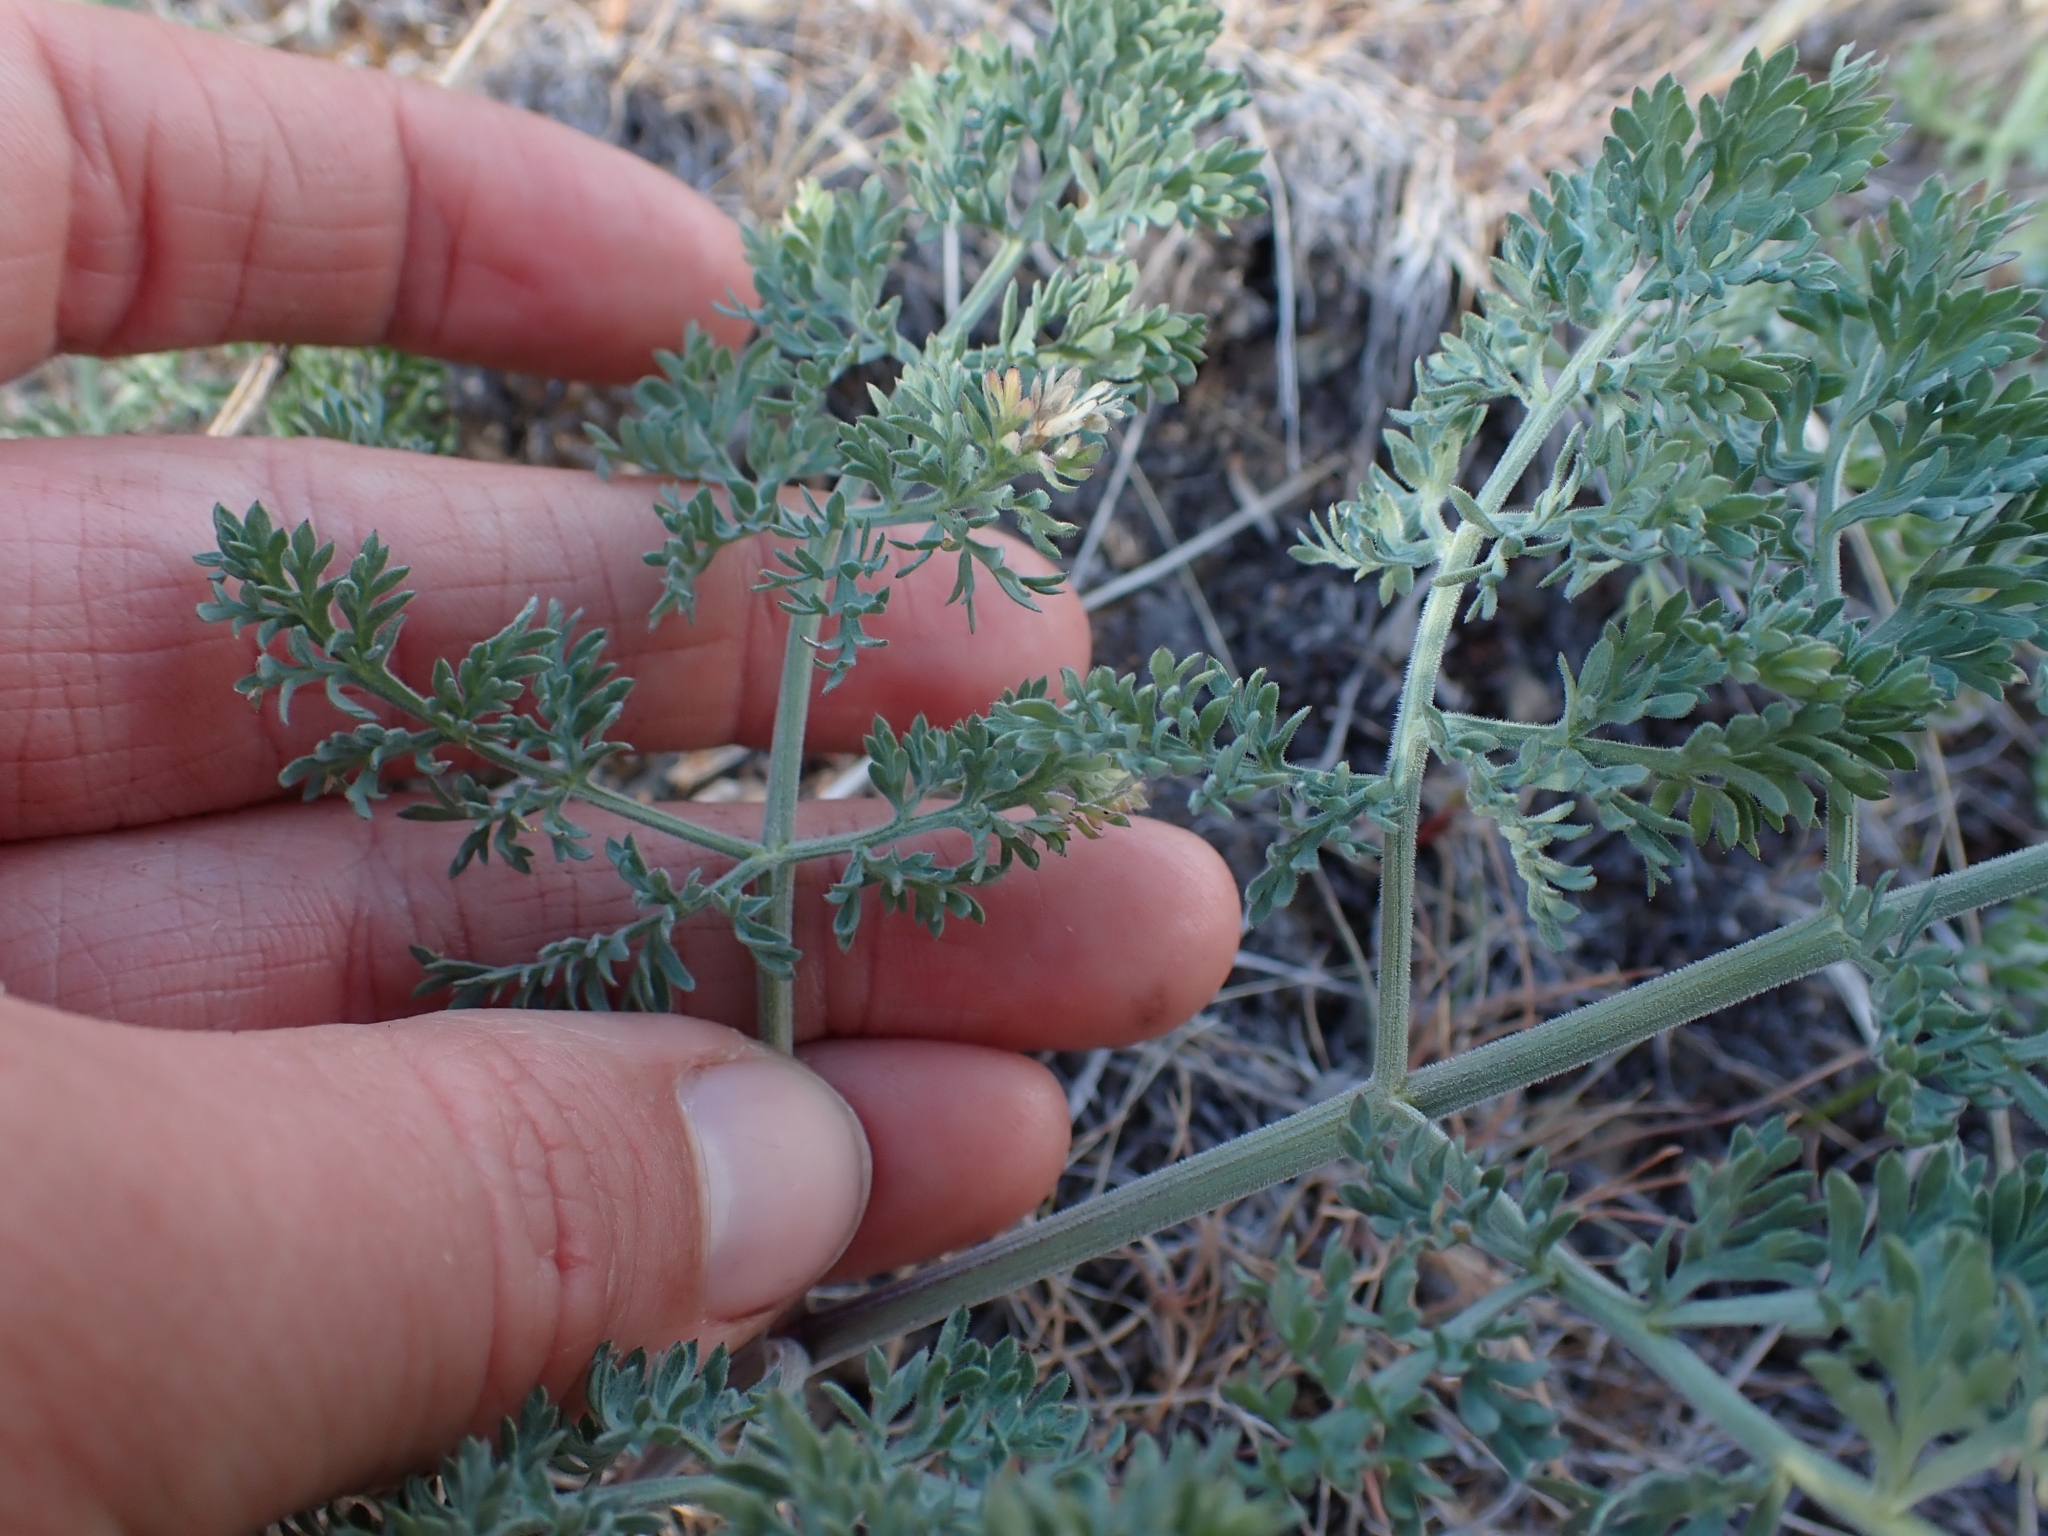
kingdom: Plantae
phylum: Tracheophyta
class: Magnoliopsida
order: Apiales
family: Apiaceae
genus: Lomatium
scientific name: Lomatium macrocarpum
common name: Big-seed biscuitroot
